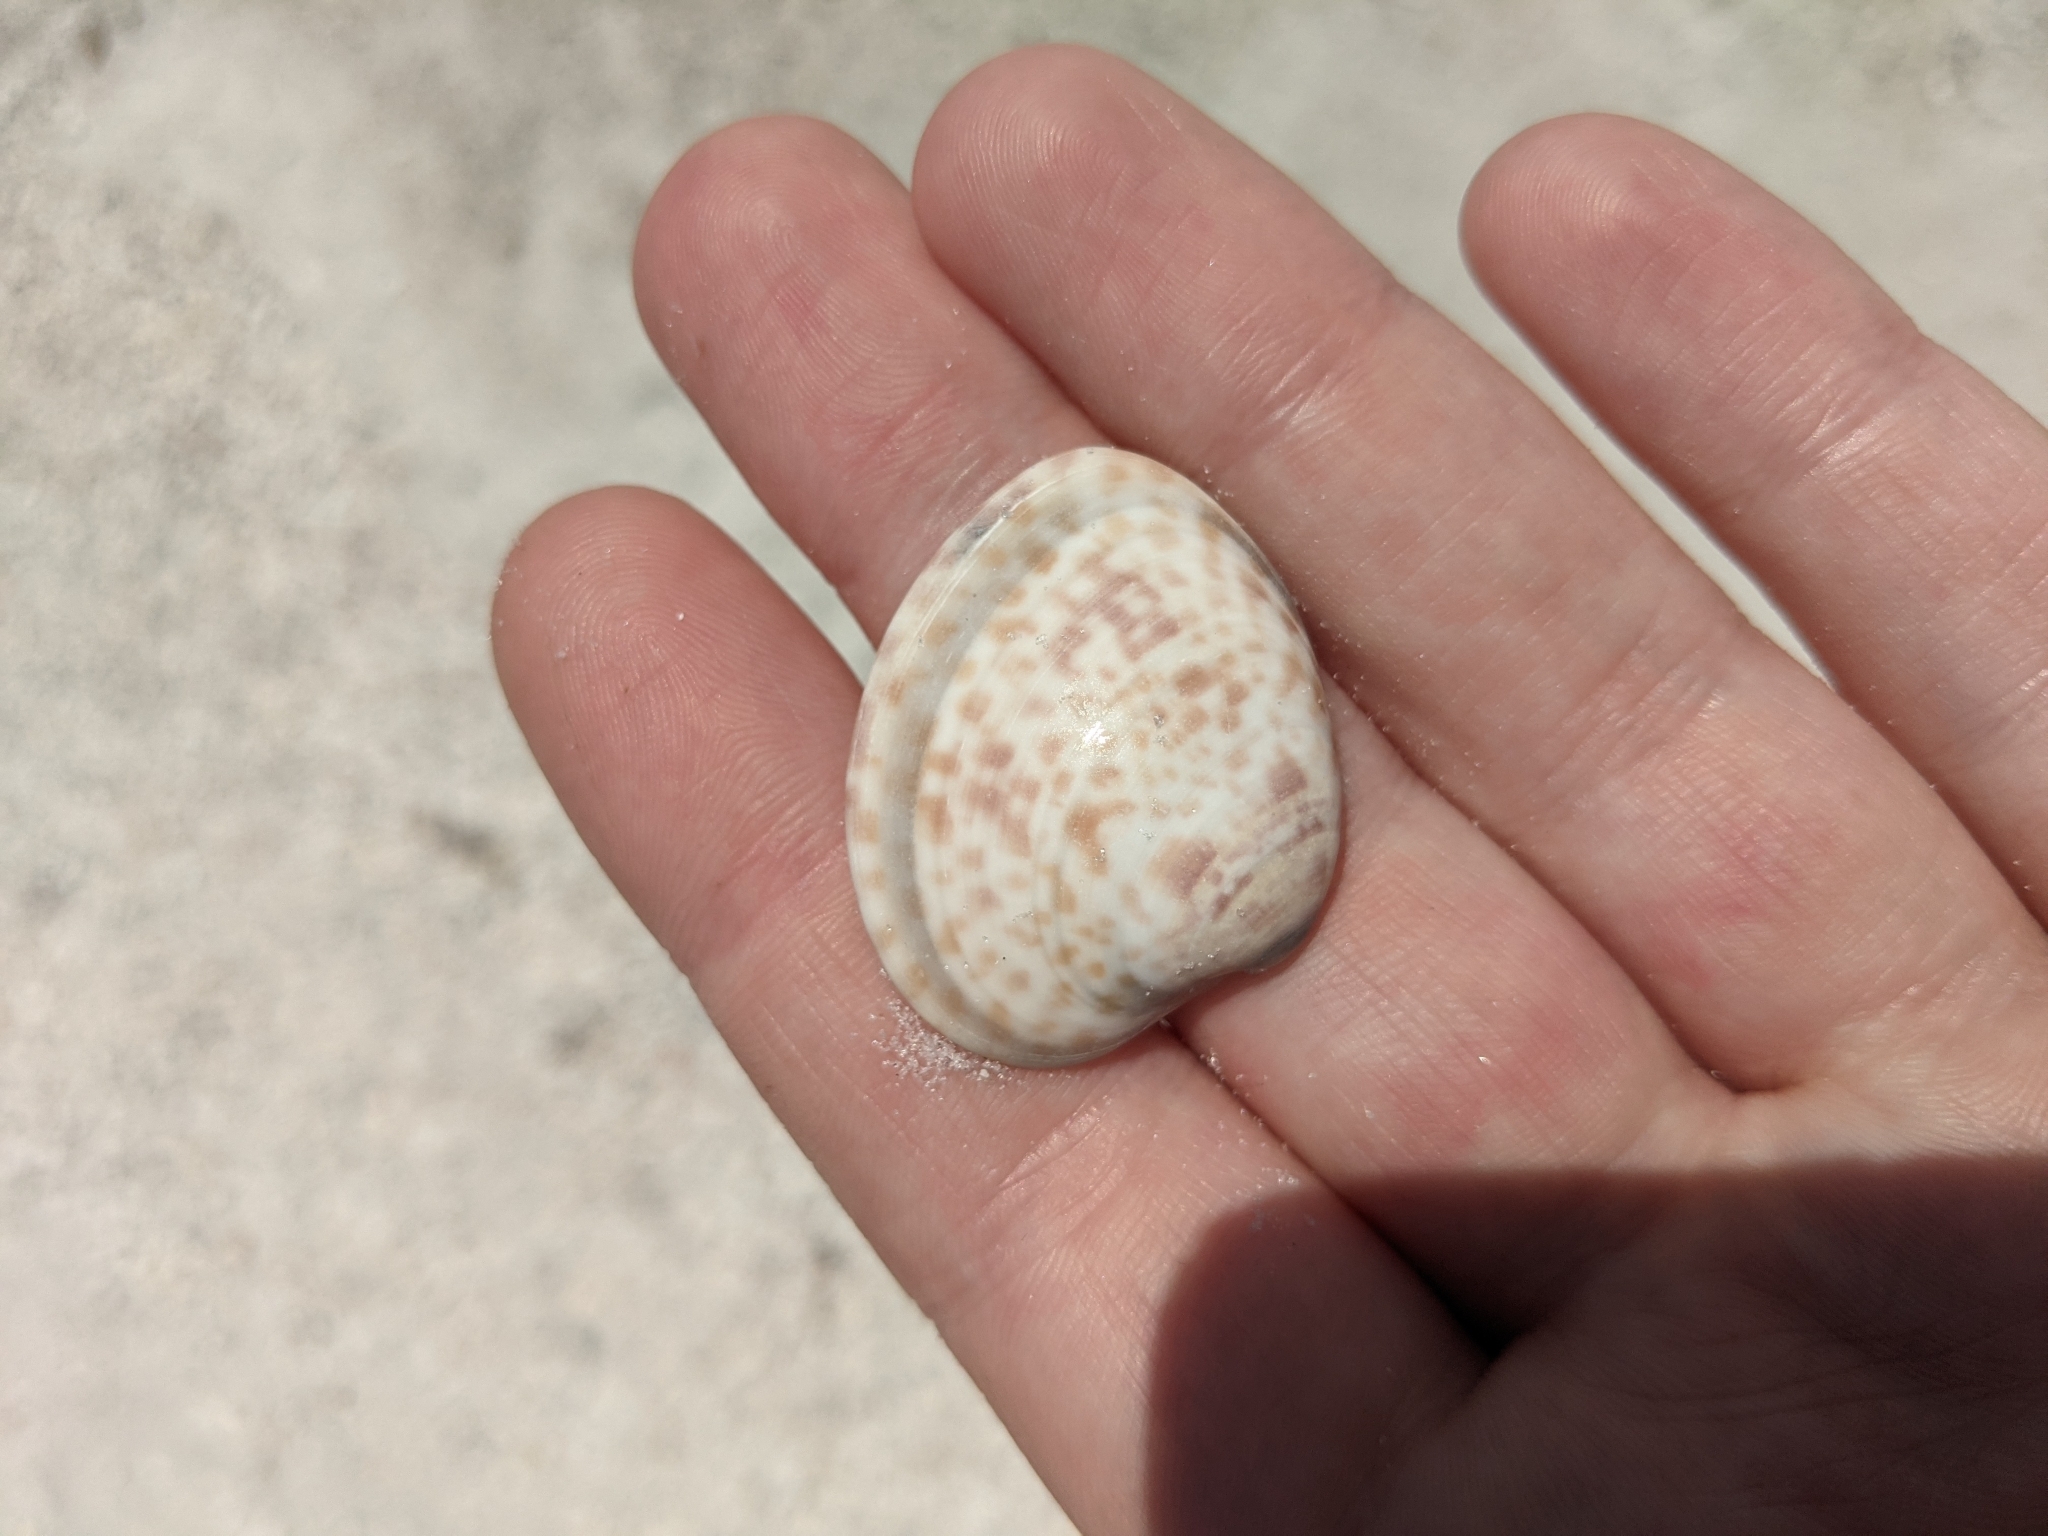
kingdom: Animalia
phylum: Mollusca
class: Bivalvia
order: Venerida
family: Veneridae
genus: Megapitaria
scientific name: Megapitaria maculata
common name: Calico clam
